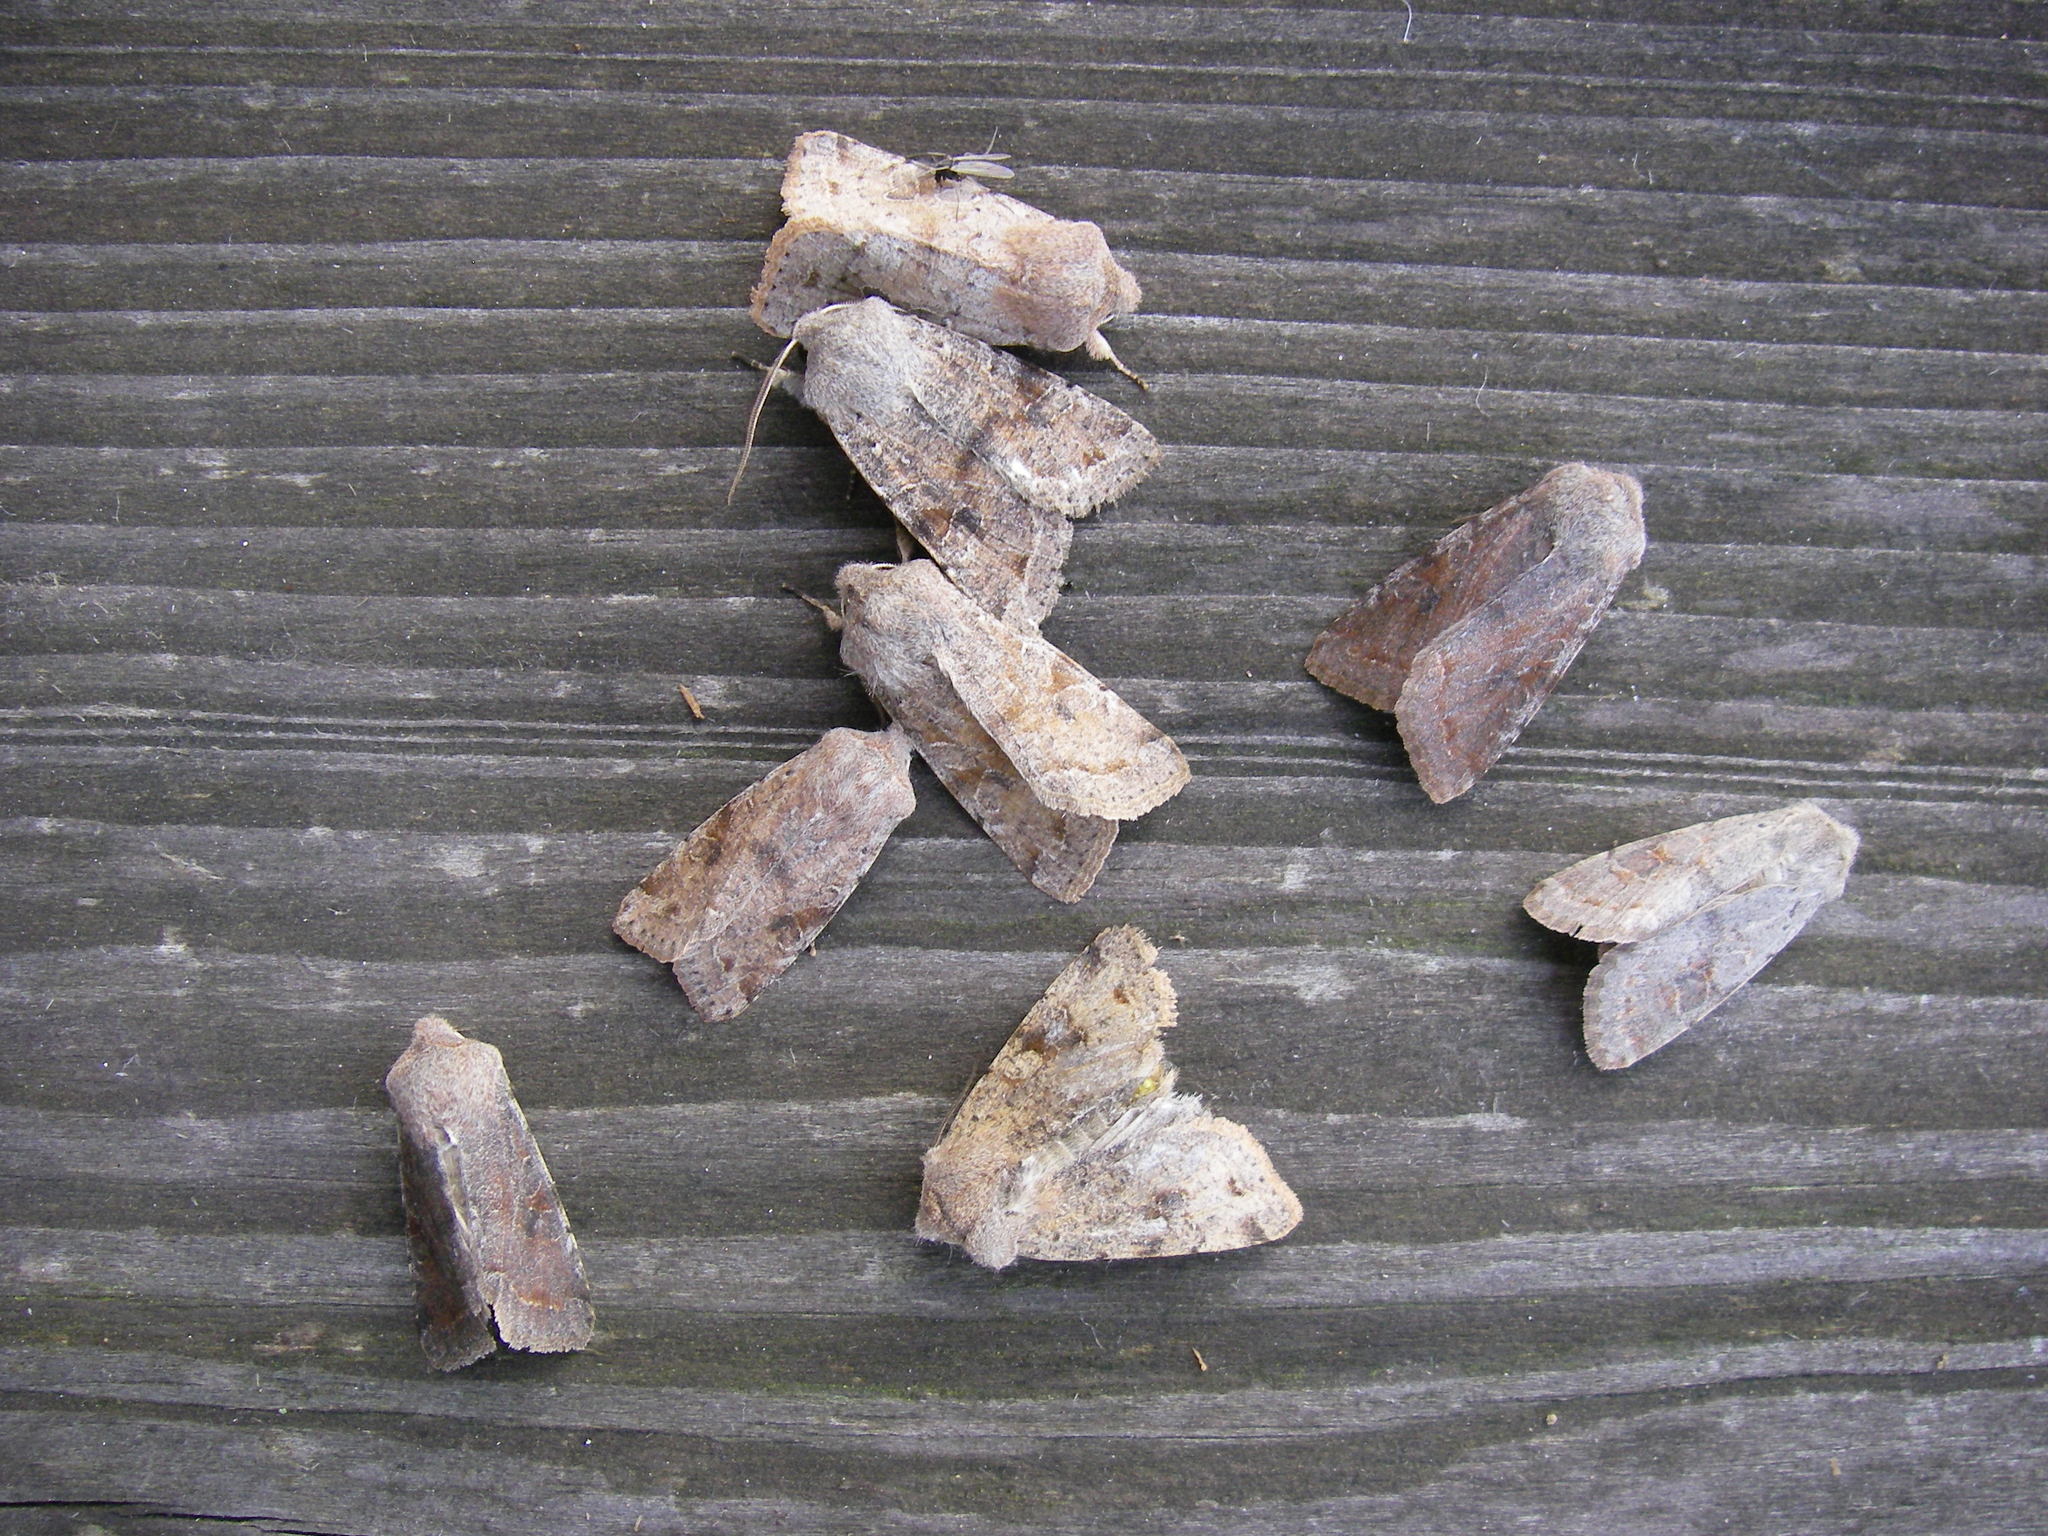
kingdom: Animalia
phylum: Arthropoda
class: Insecta
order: Lepidoptera
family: Noctuidae
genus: Orthosia
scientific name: Orthosia incerta
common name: Clouded drab
